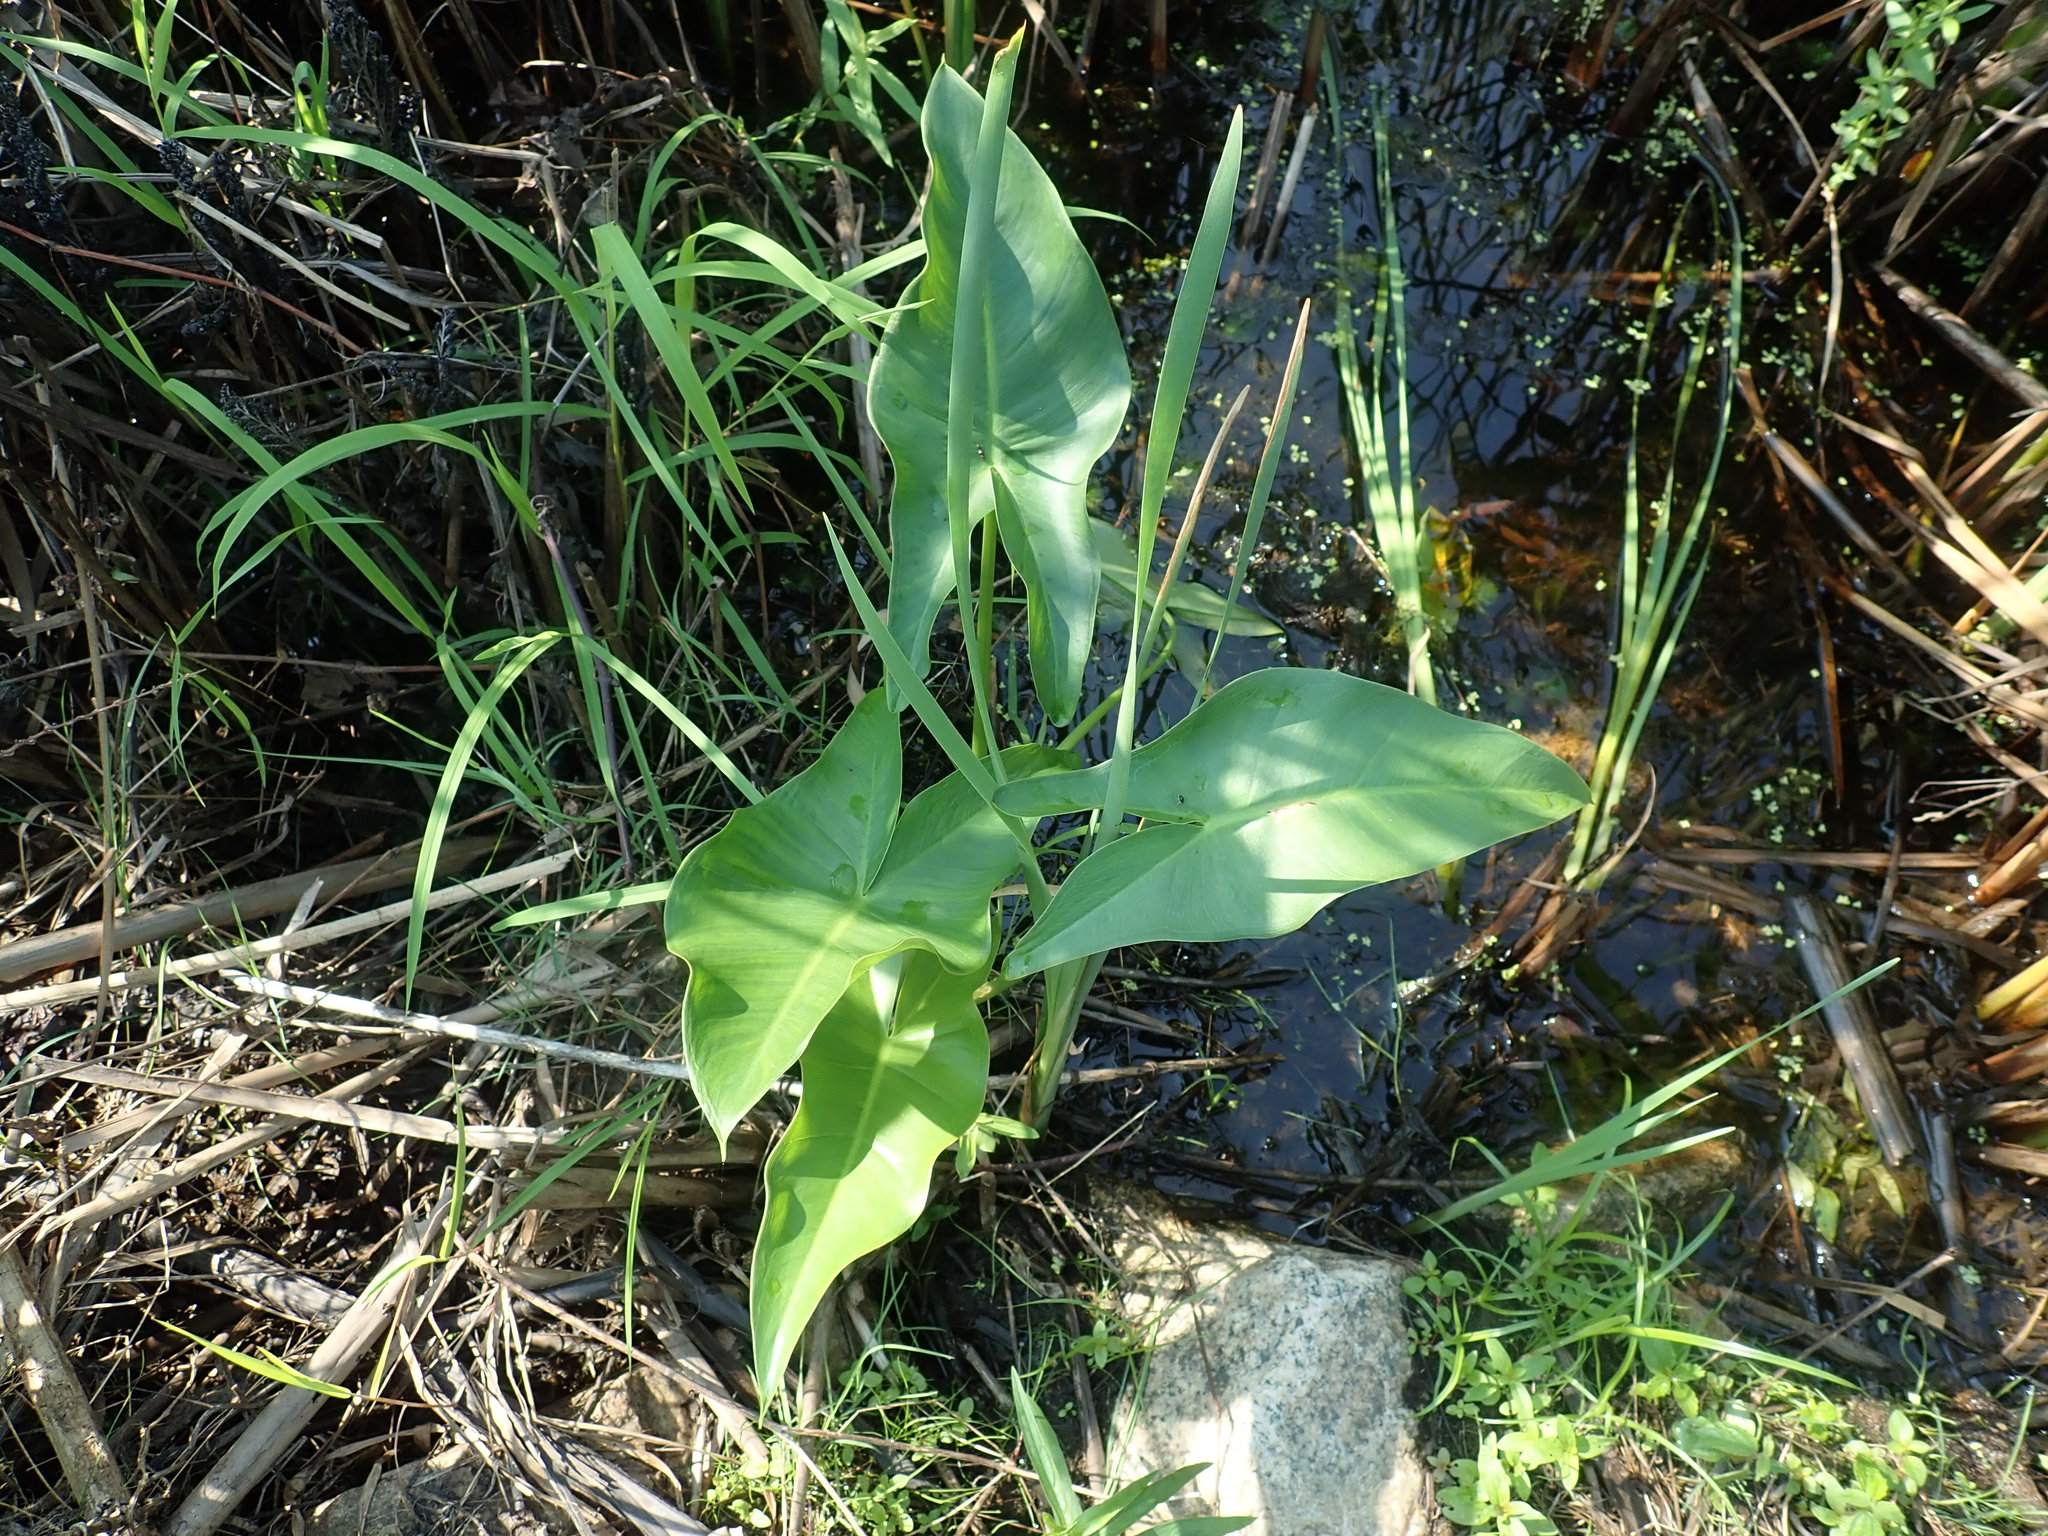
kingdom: Plantae
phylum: Tracheophyta
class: Liliopsida
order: Alismatales
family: Araceae
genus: Peltandra
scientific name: Peltandra virginica
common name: Arrow arum
